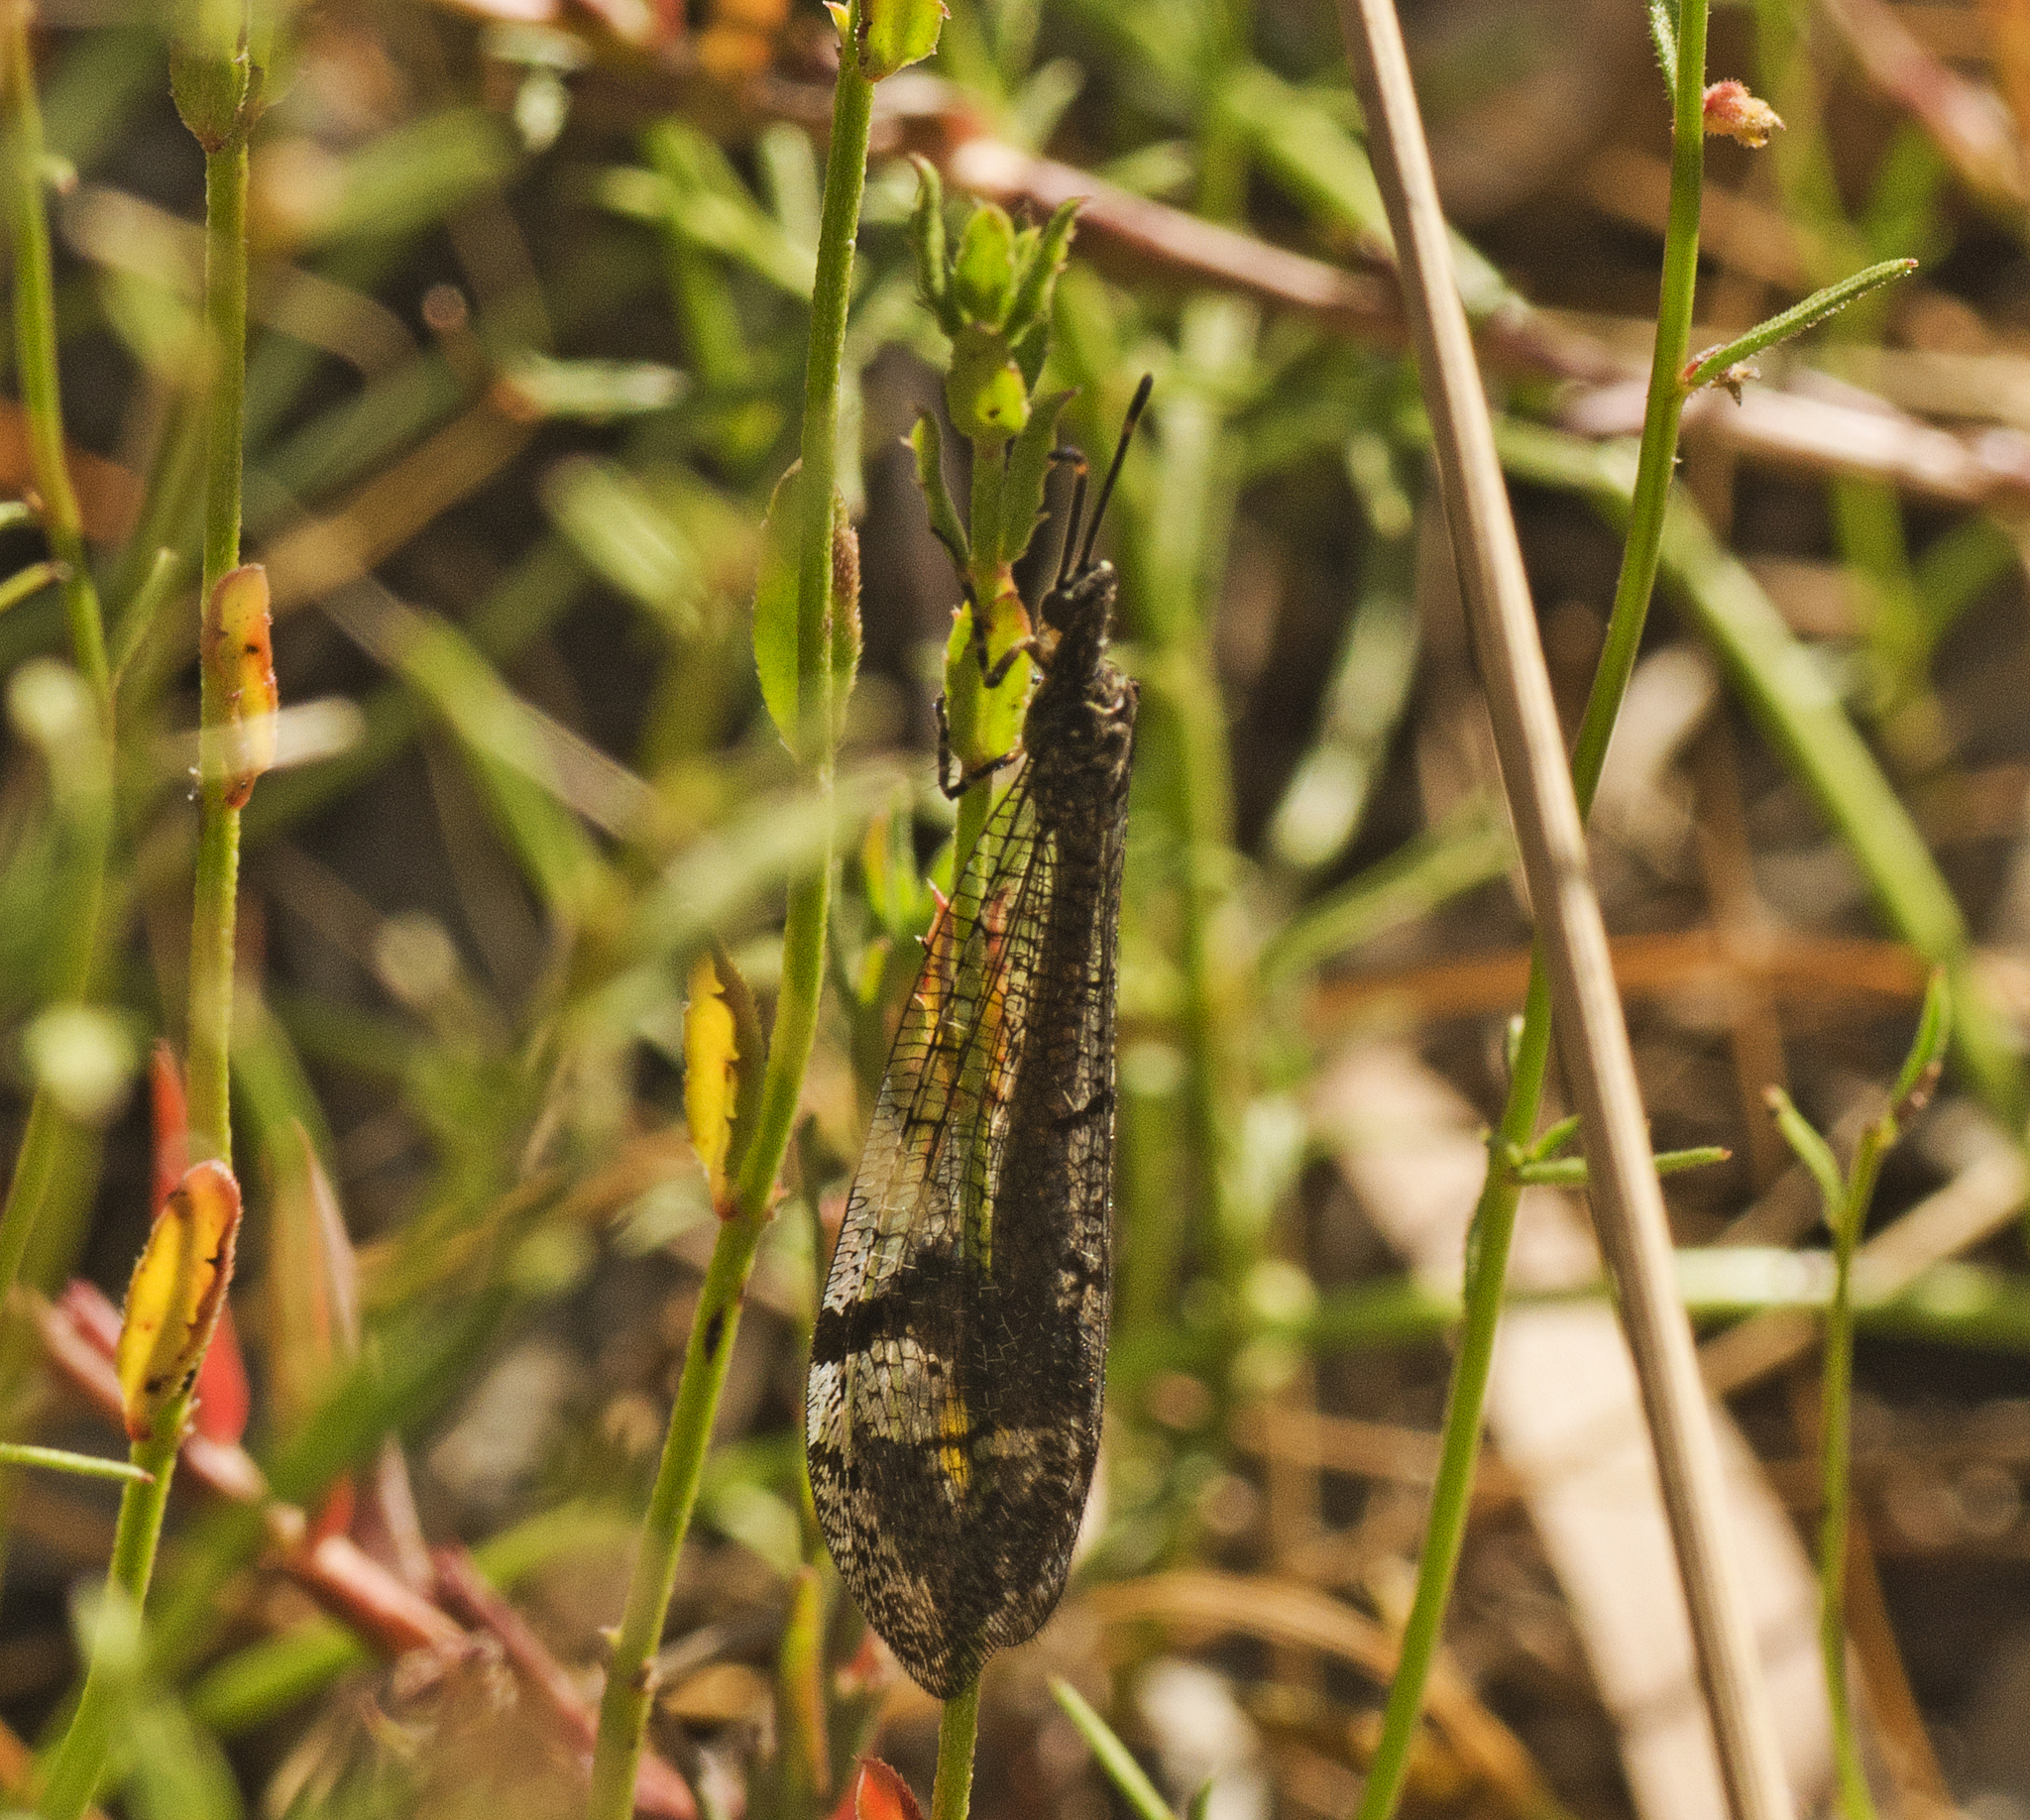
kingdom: Animalia
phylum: Arthropoda
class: Insecta
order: Neuroptera
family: Myrmeleontidae
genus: Glenoleon
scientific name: Glenoleon pulchellus
